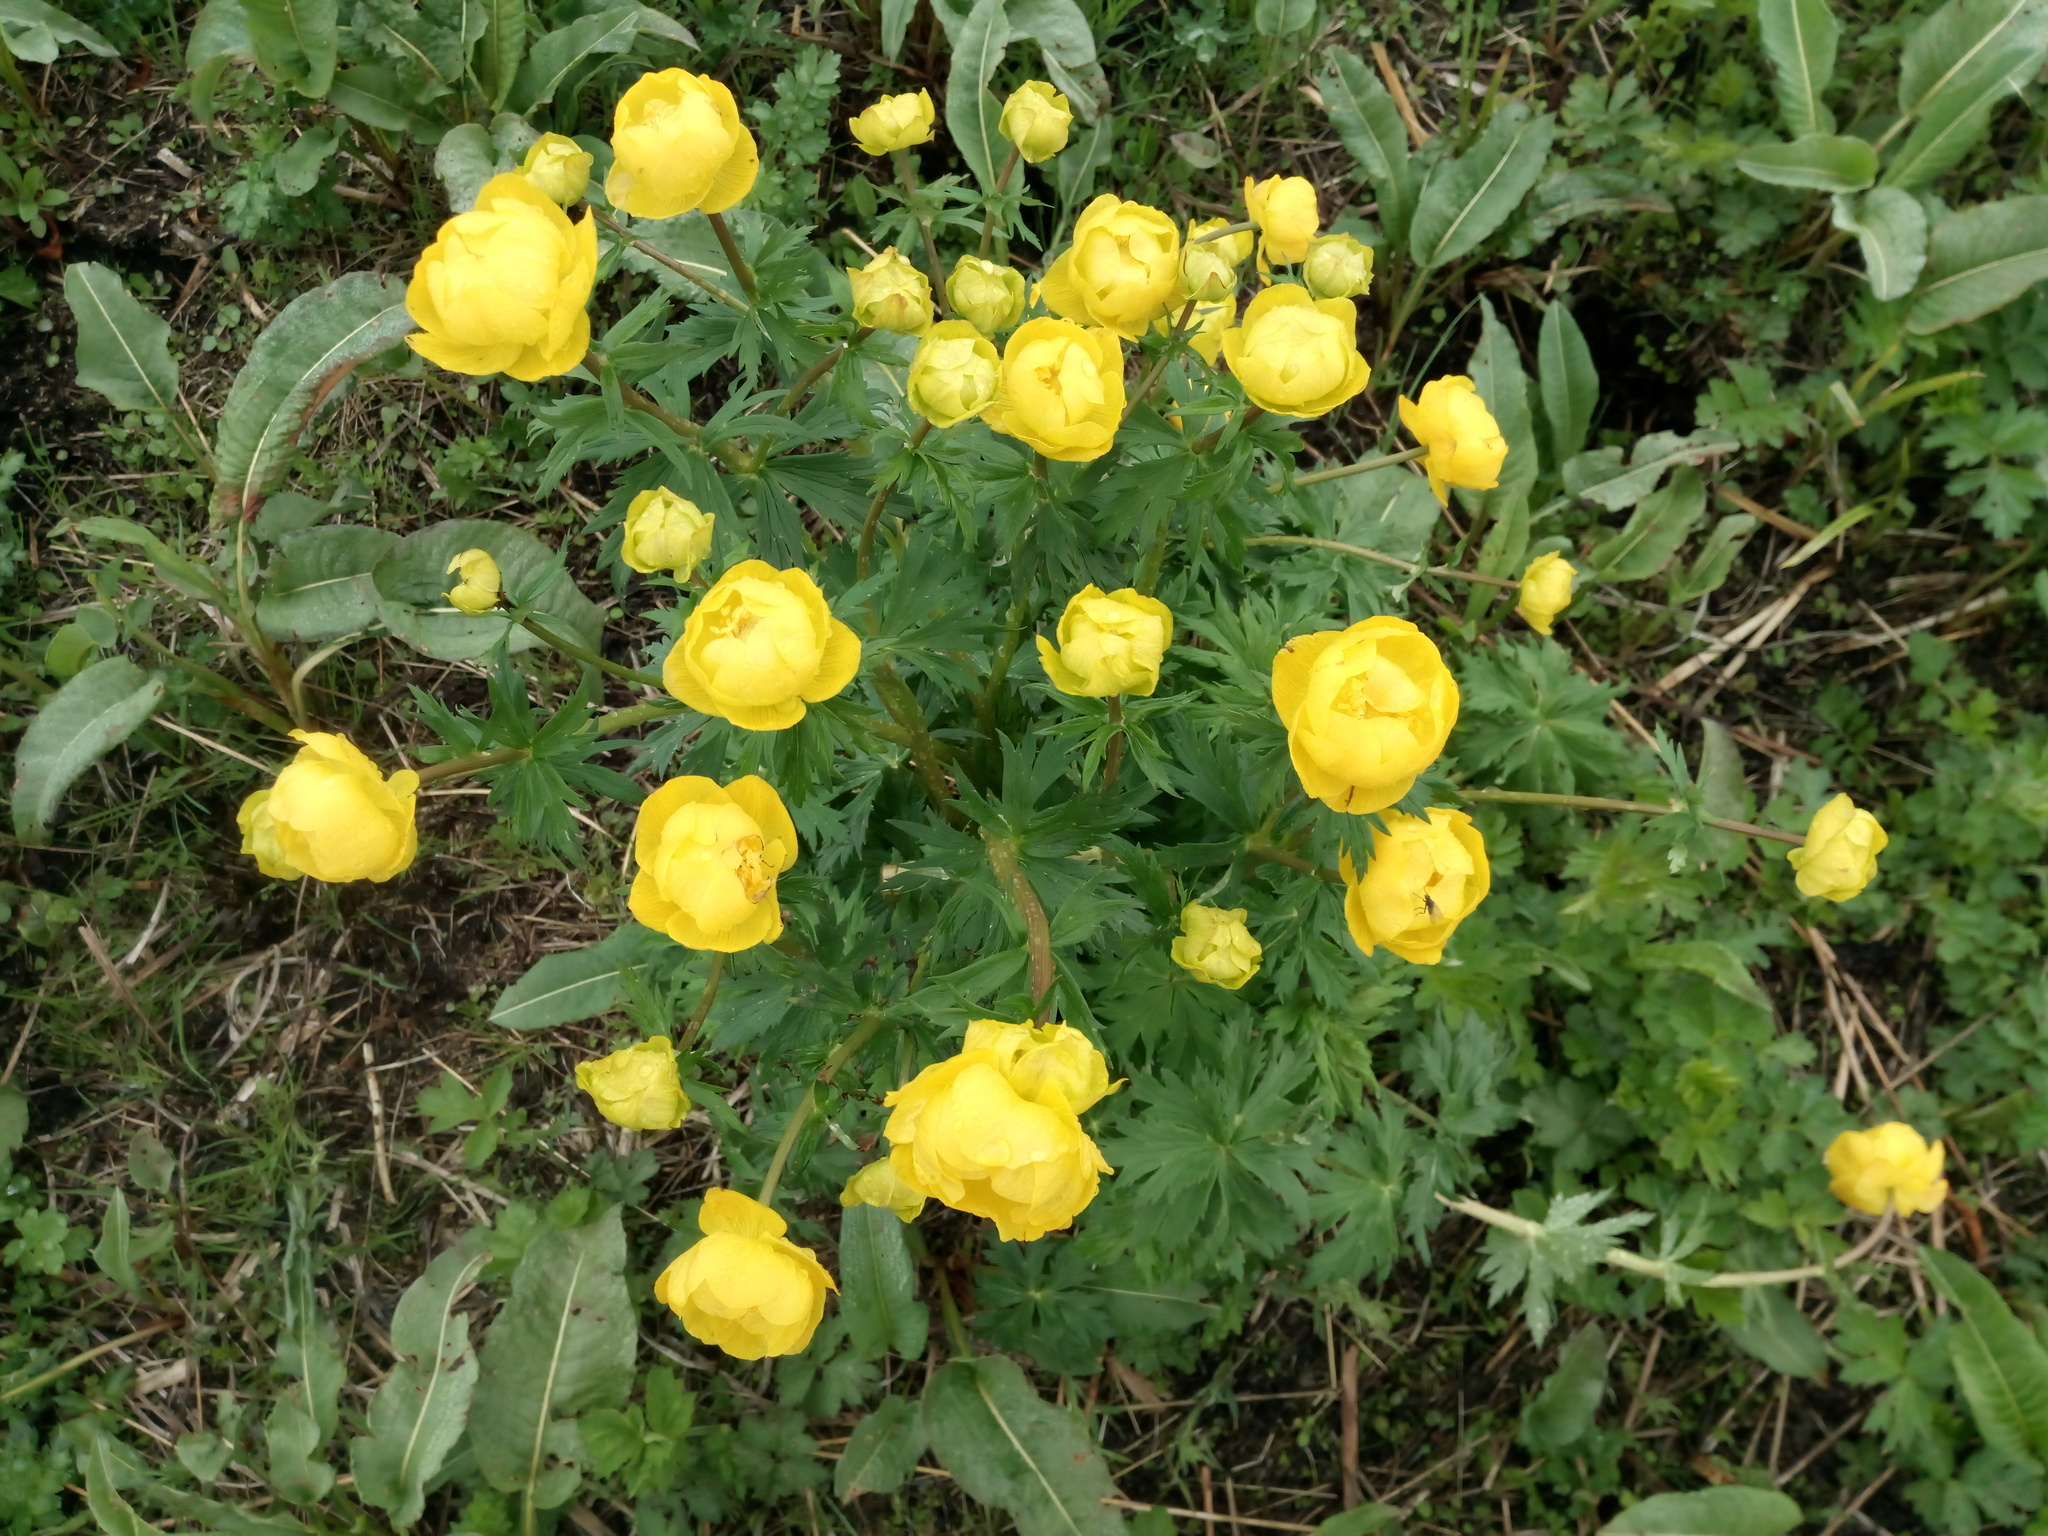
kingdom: Plantae
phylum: Tracheophyta
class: Magnoliopsida
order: Ranunculales
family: Ranunculaceae
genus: Trollius
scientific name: Trollius europaeus
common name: European globeflower
